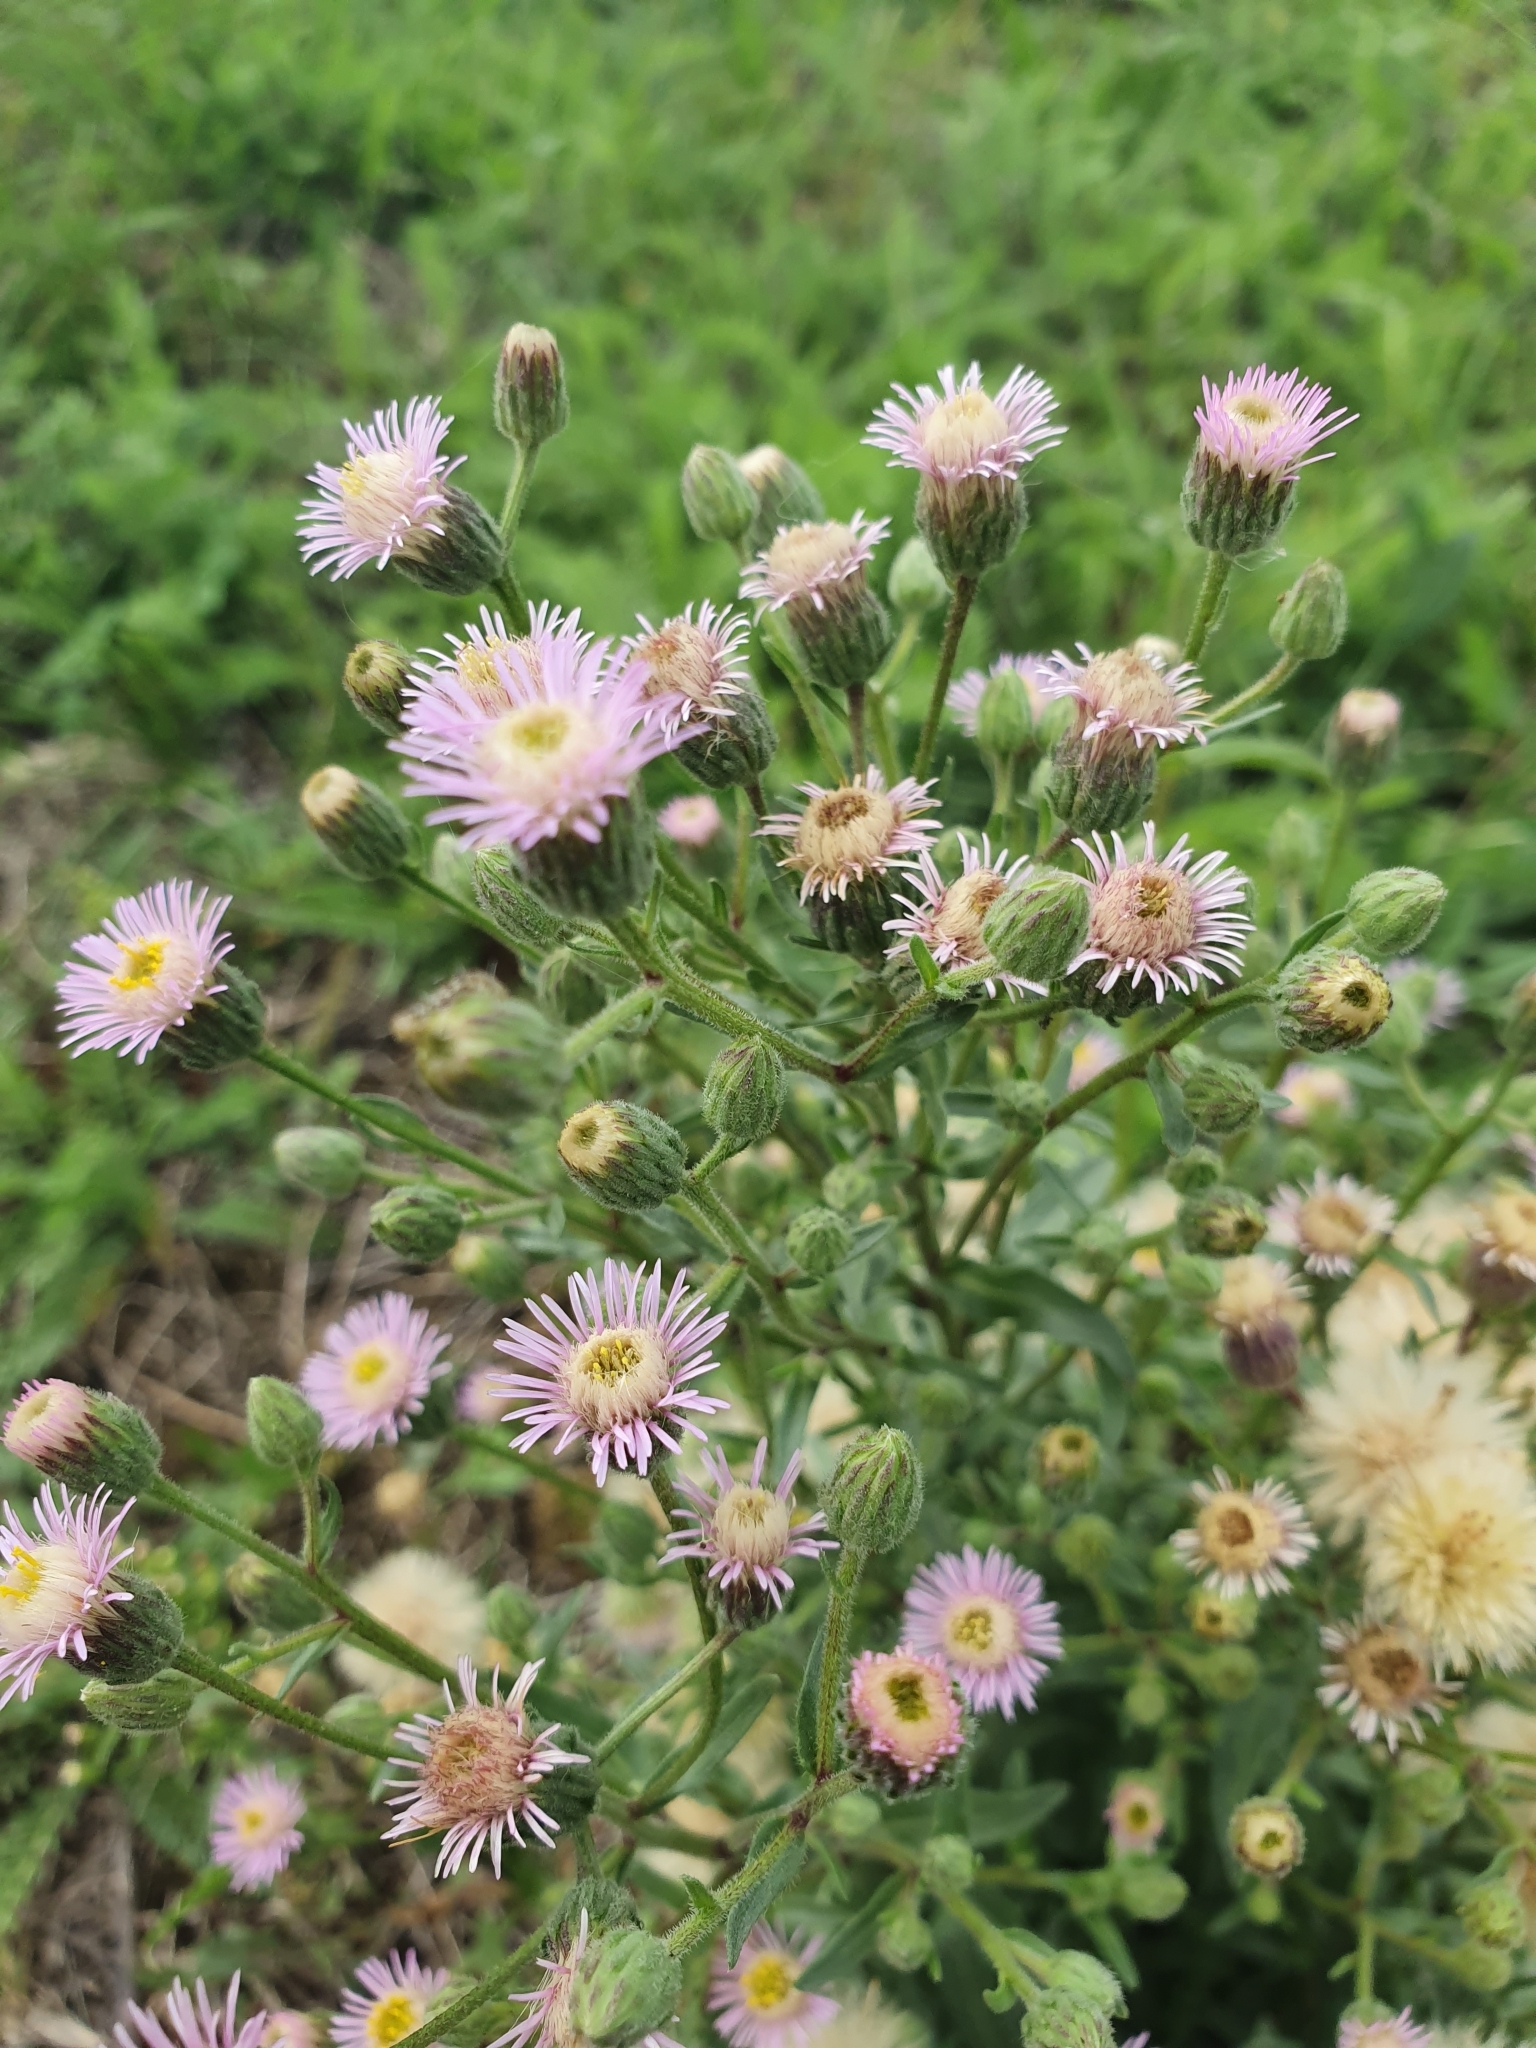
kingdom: Plantae
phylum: Tracheophyta
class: Magnoliopsida
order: Asterales
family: Asteraceae
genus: Erigeron
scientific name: Erigeron acris
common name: Blue fleabane
